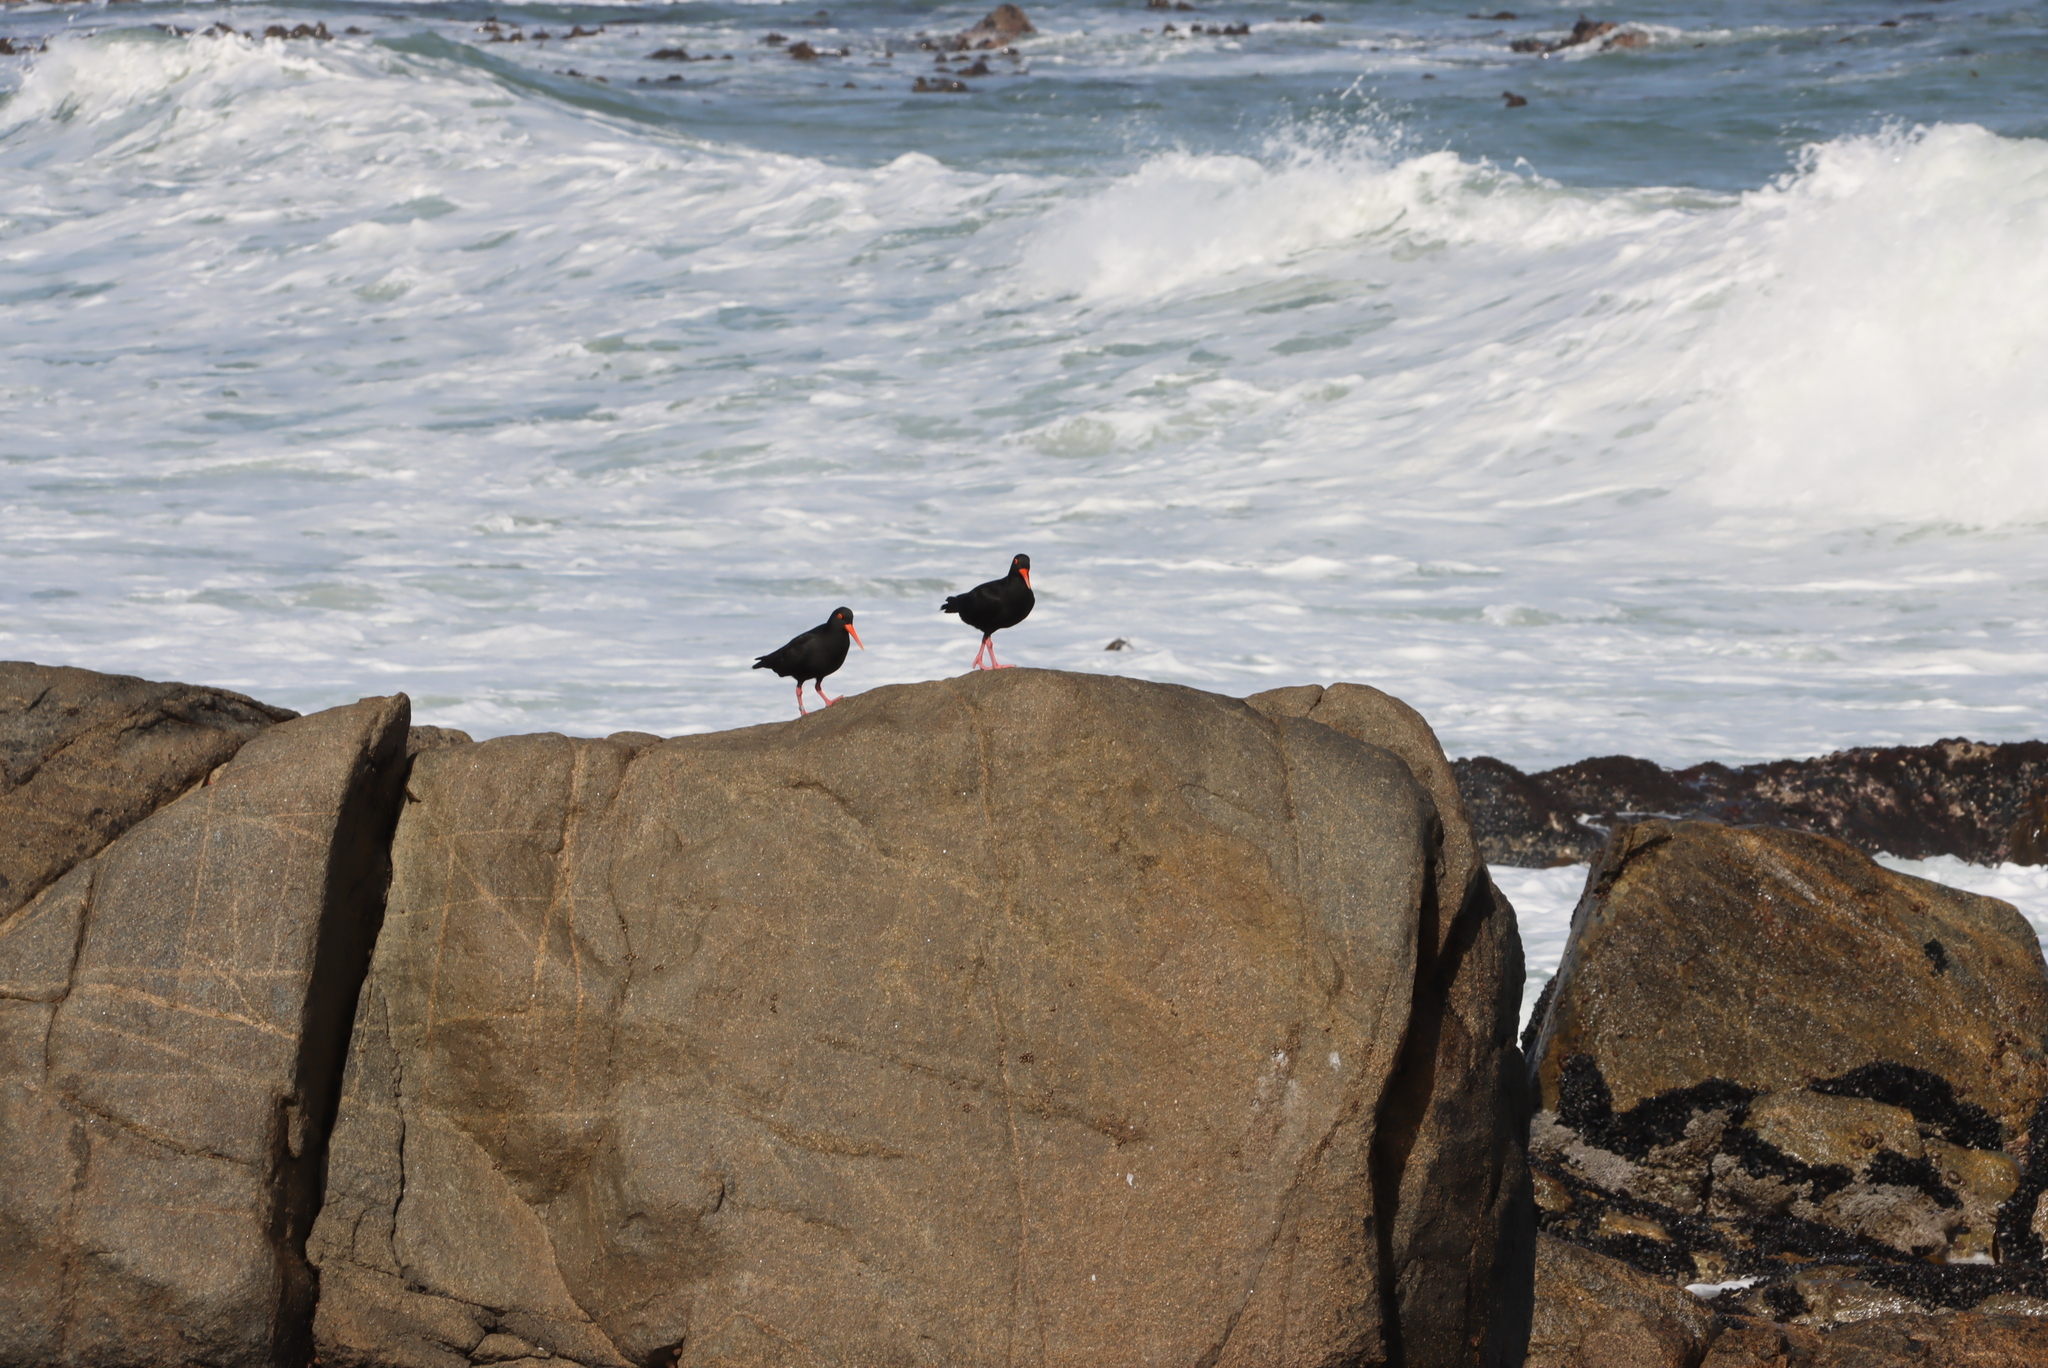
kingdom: Animalia
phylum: Chordata
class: Aves
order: Charadriiformes
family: Haematopodidae
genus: Haematopus
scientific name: Haematopus moquini
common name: African oystercatcher
